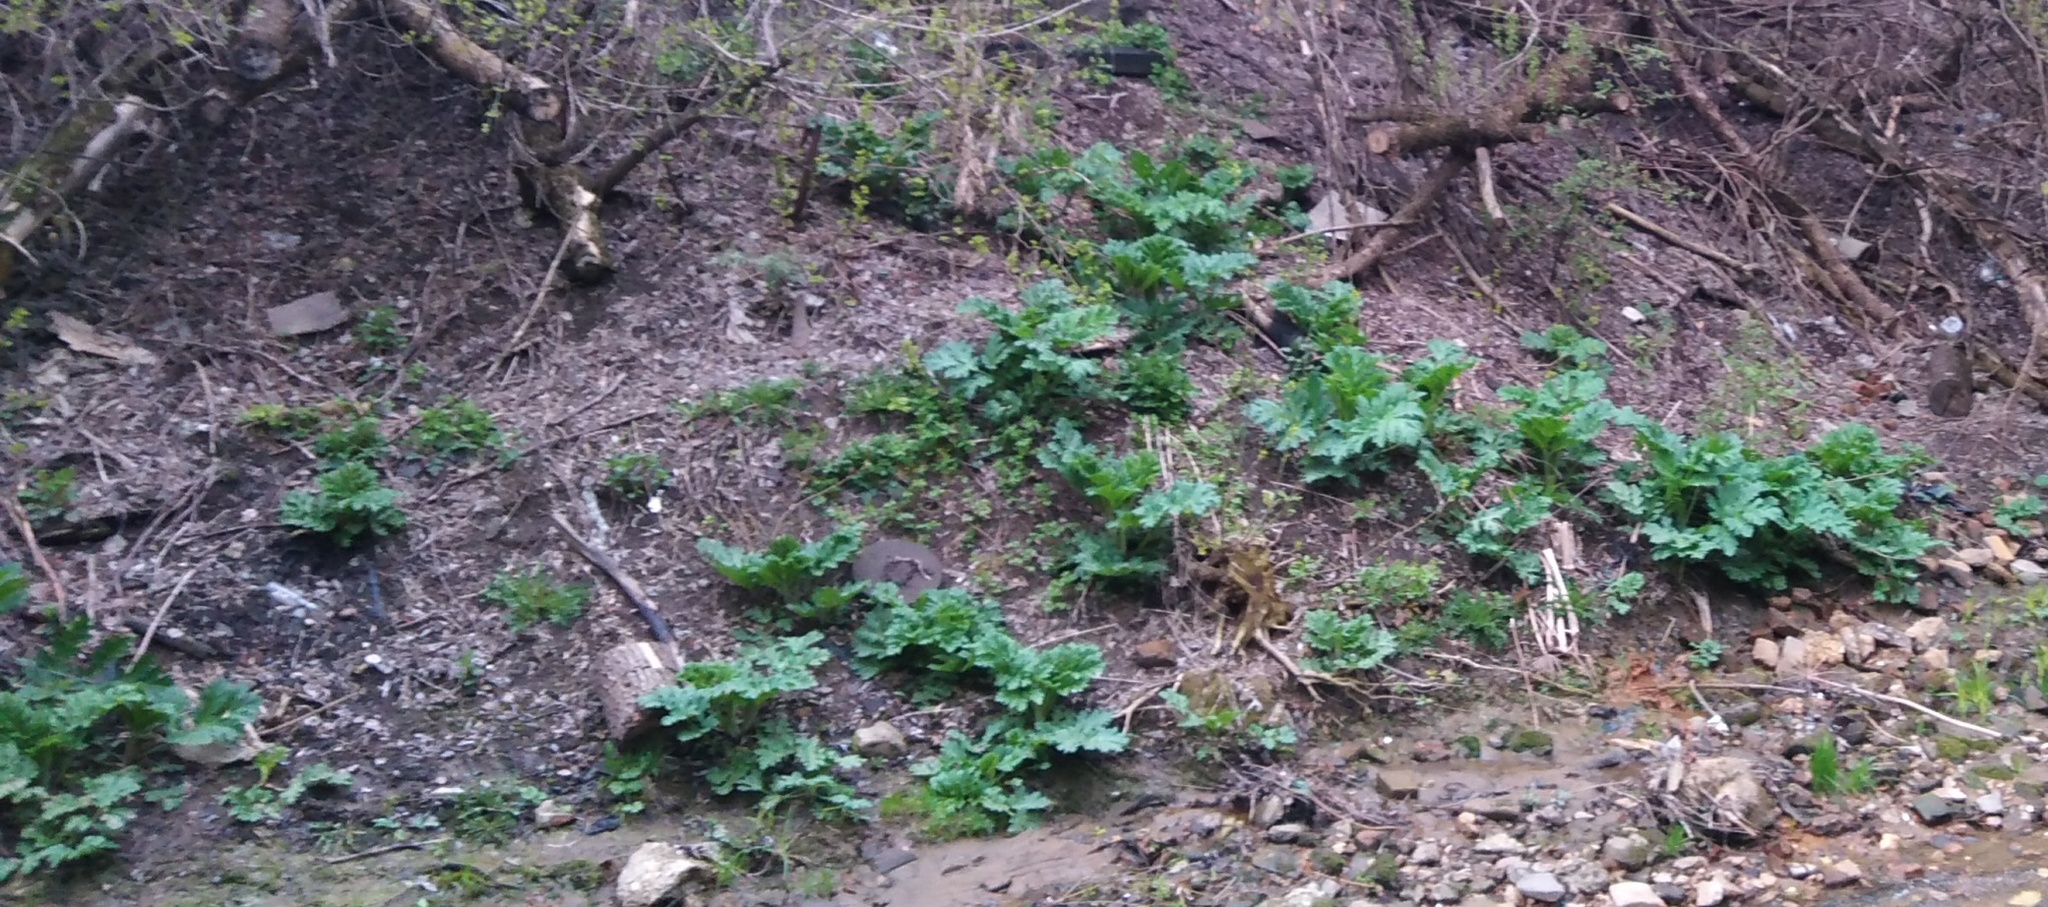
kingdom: Plantae
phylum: Tracheophyta
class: Magnoliopsida
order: Apiales
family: Apiaceae
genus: Heracleum
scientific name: Heracleum sosnowskyi
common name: Sosnowsky's hogweed
